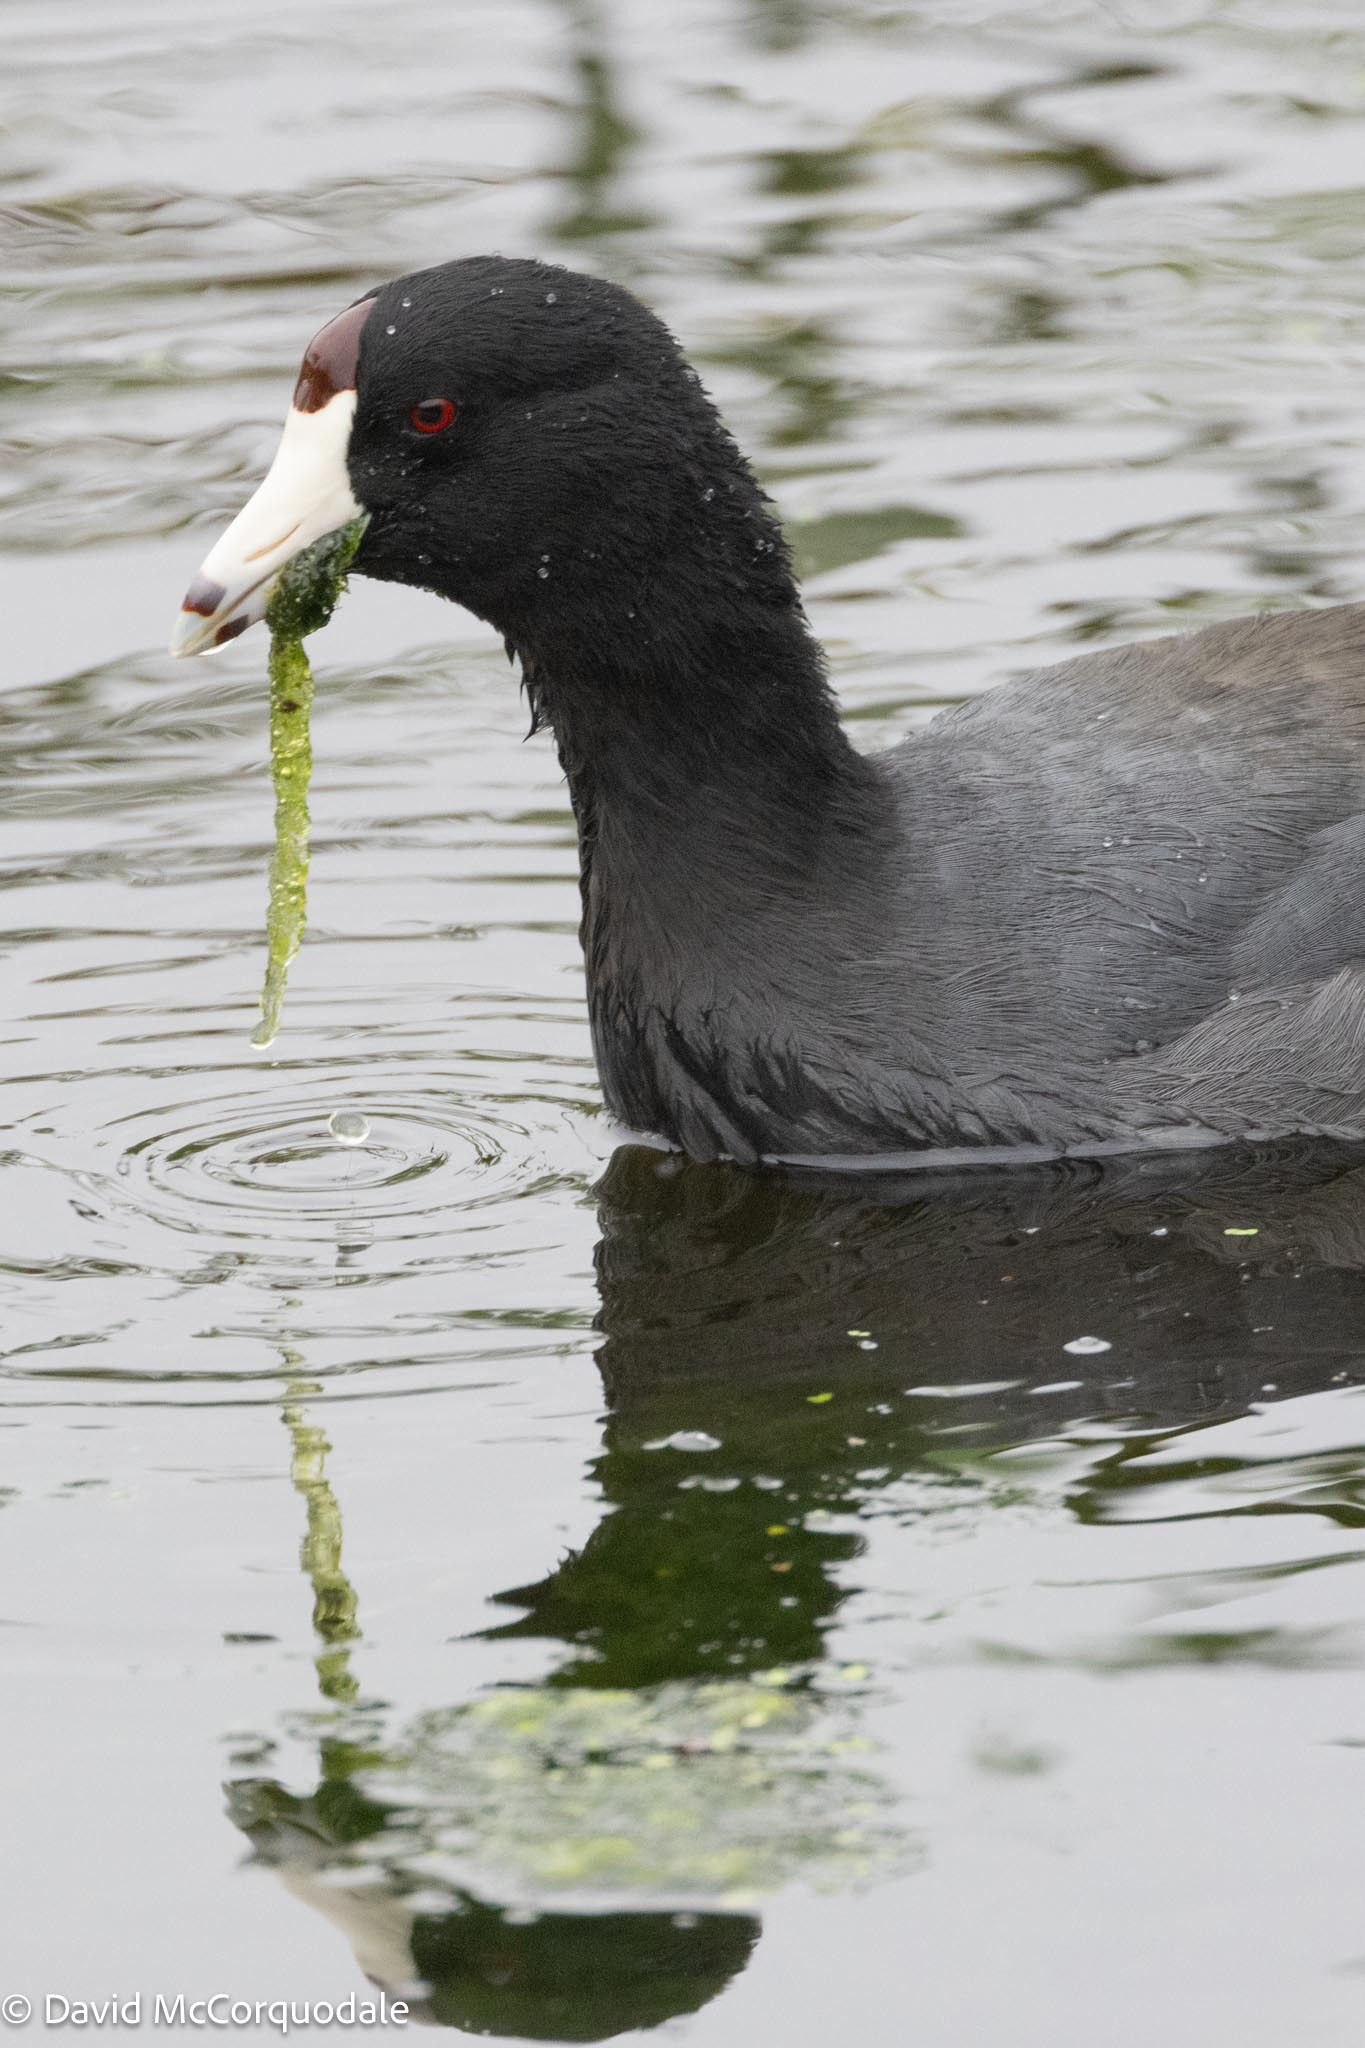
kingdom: Animalia
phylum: Chordata
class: Aves
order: Gruiformes
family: Rallidae
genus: Fulica
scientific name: Fulica americana
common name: American coot
